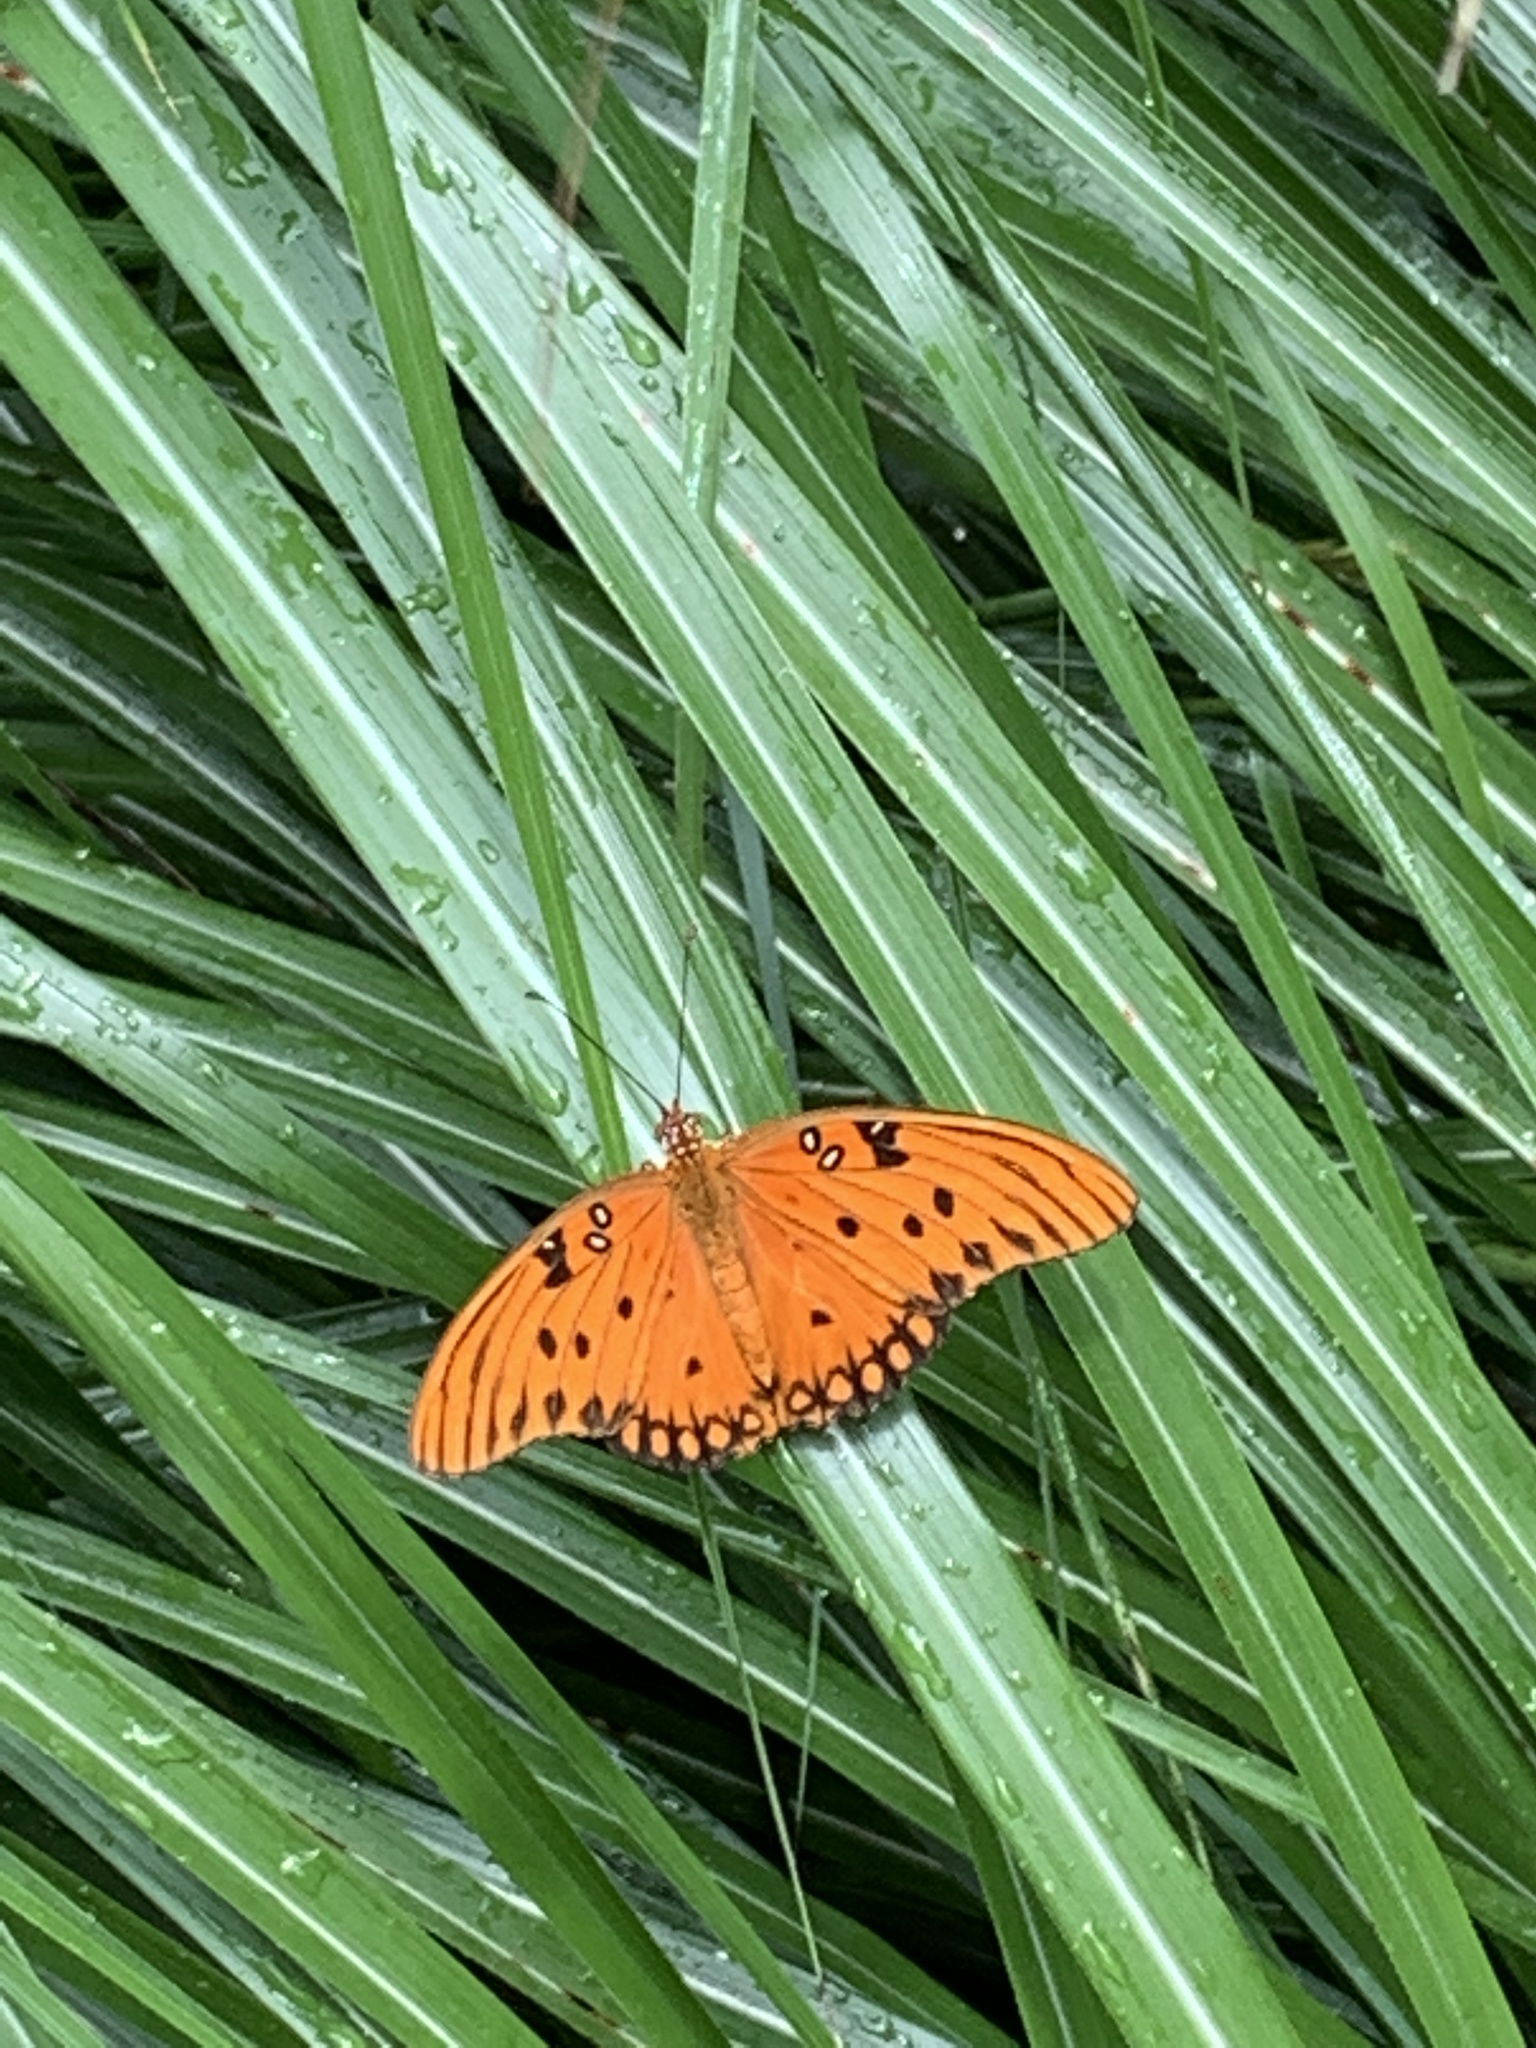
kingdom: Animalia
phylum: Arthropoda
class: Insecta
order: Lepidoptera
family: Nymphalidae
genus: Dione
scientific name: Dione vanillae
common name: Gulf fritillary
